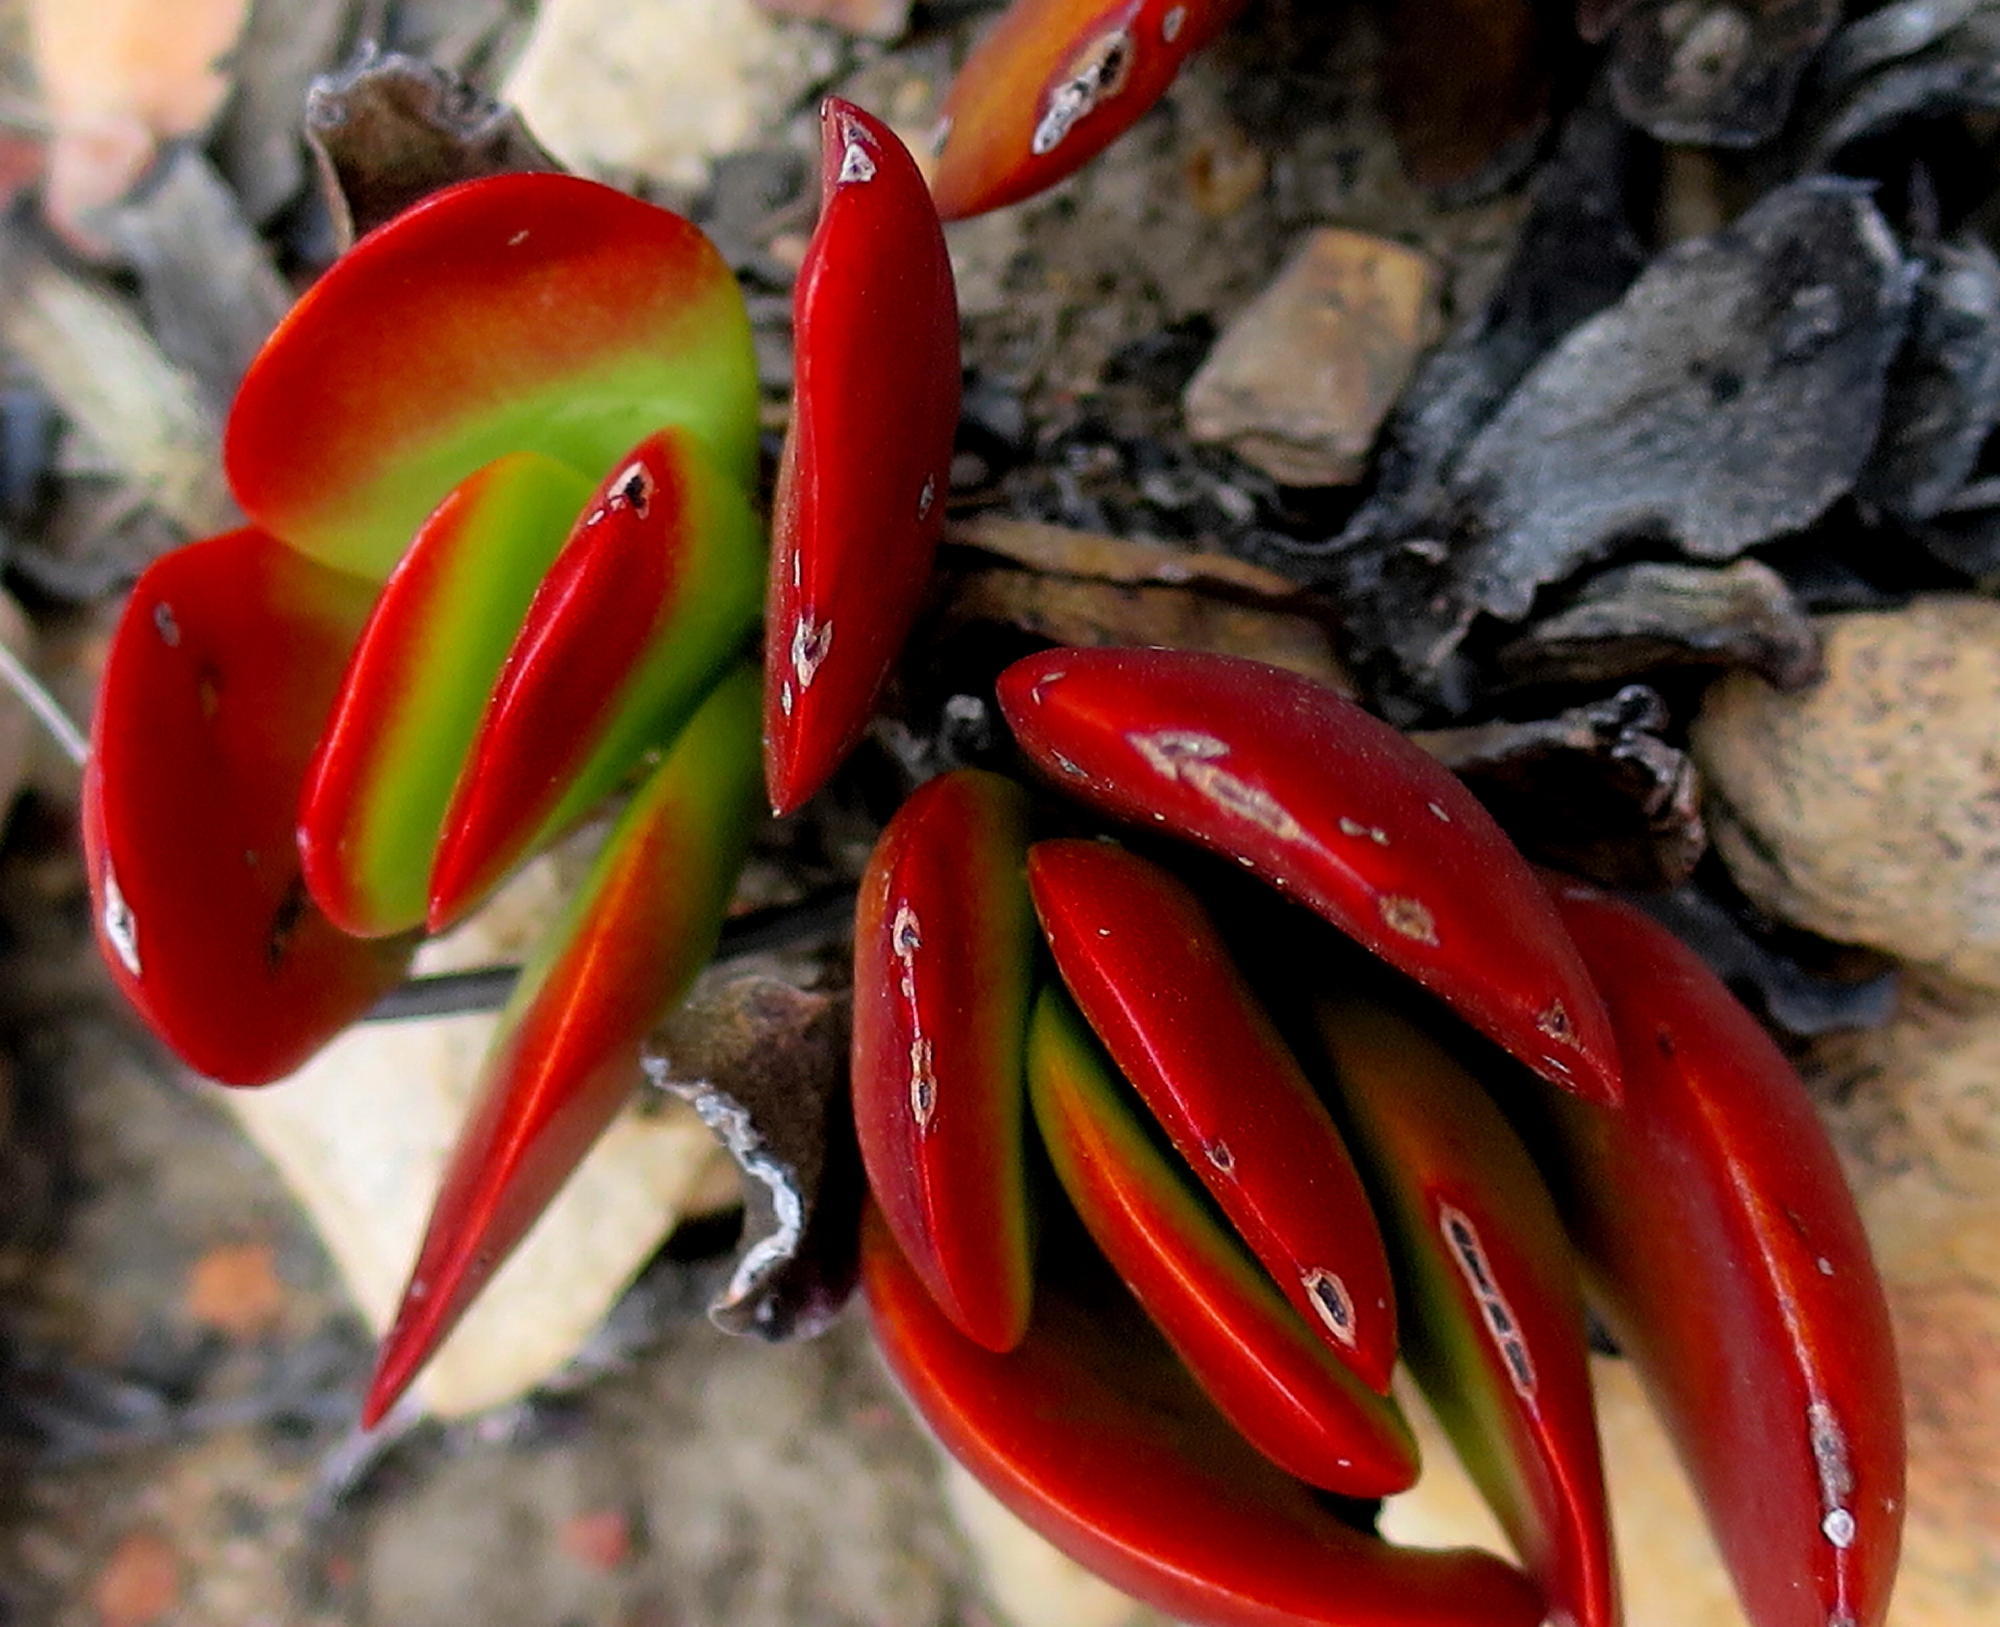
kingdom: Plantae
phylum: Tracheophyta
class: Magnoliopsida
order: Saxifragales
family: Crassulaceae
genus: Crassula
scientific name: Crassula atropurpurea
